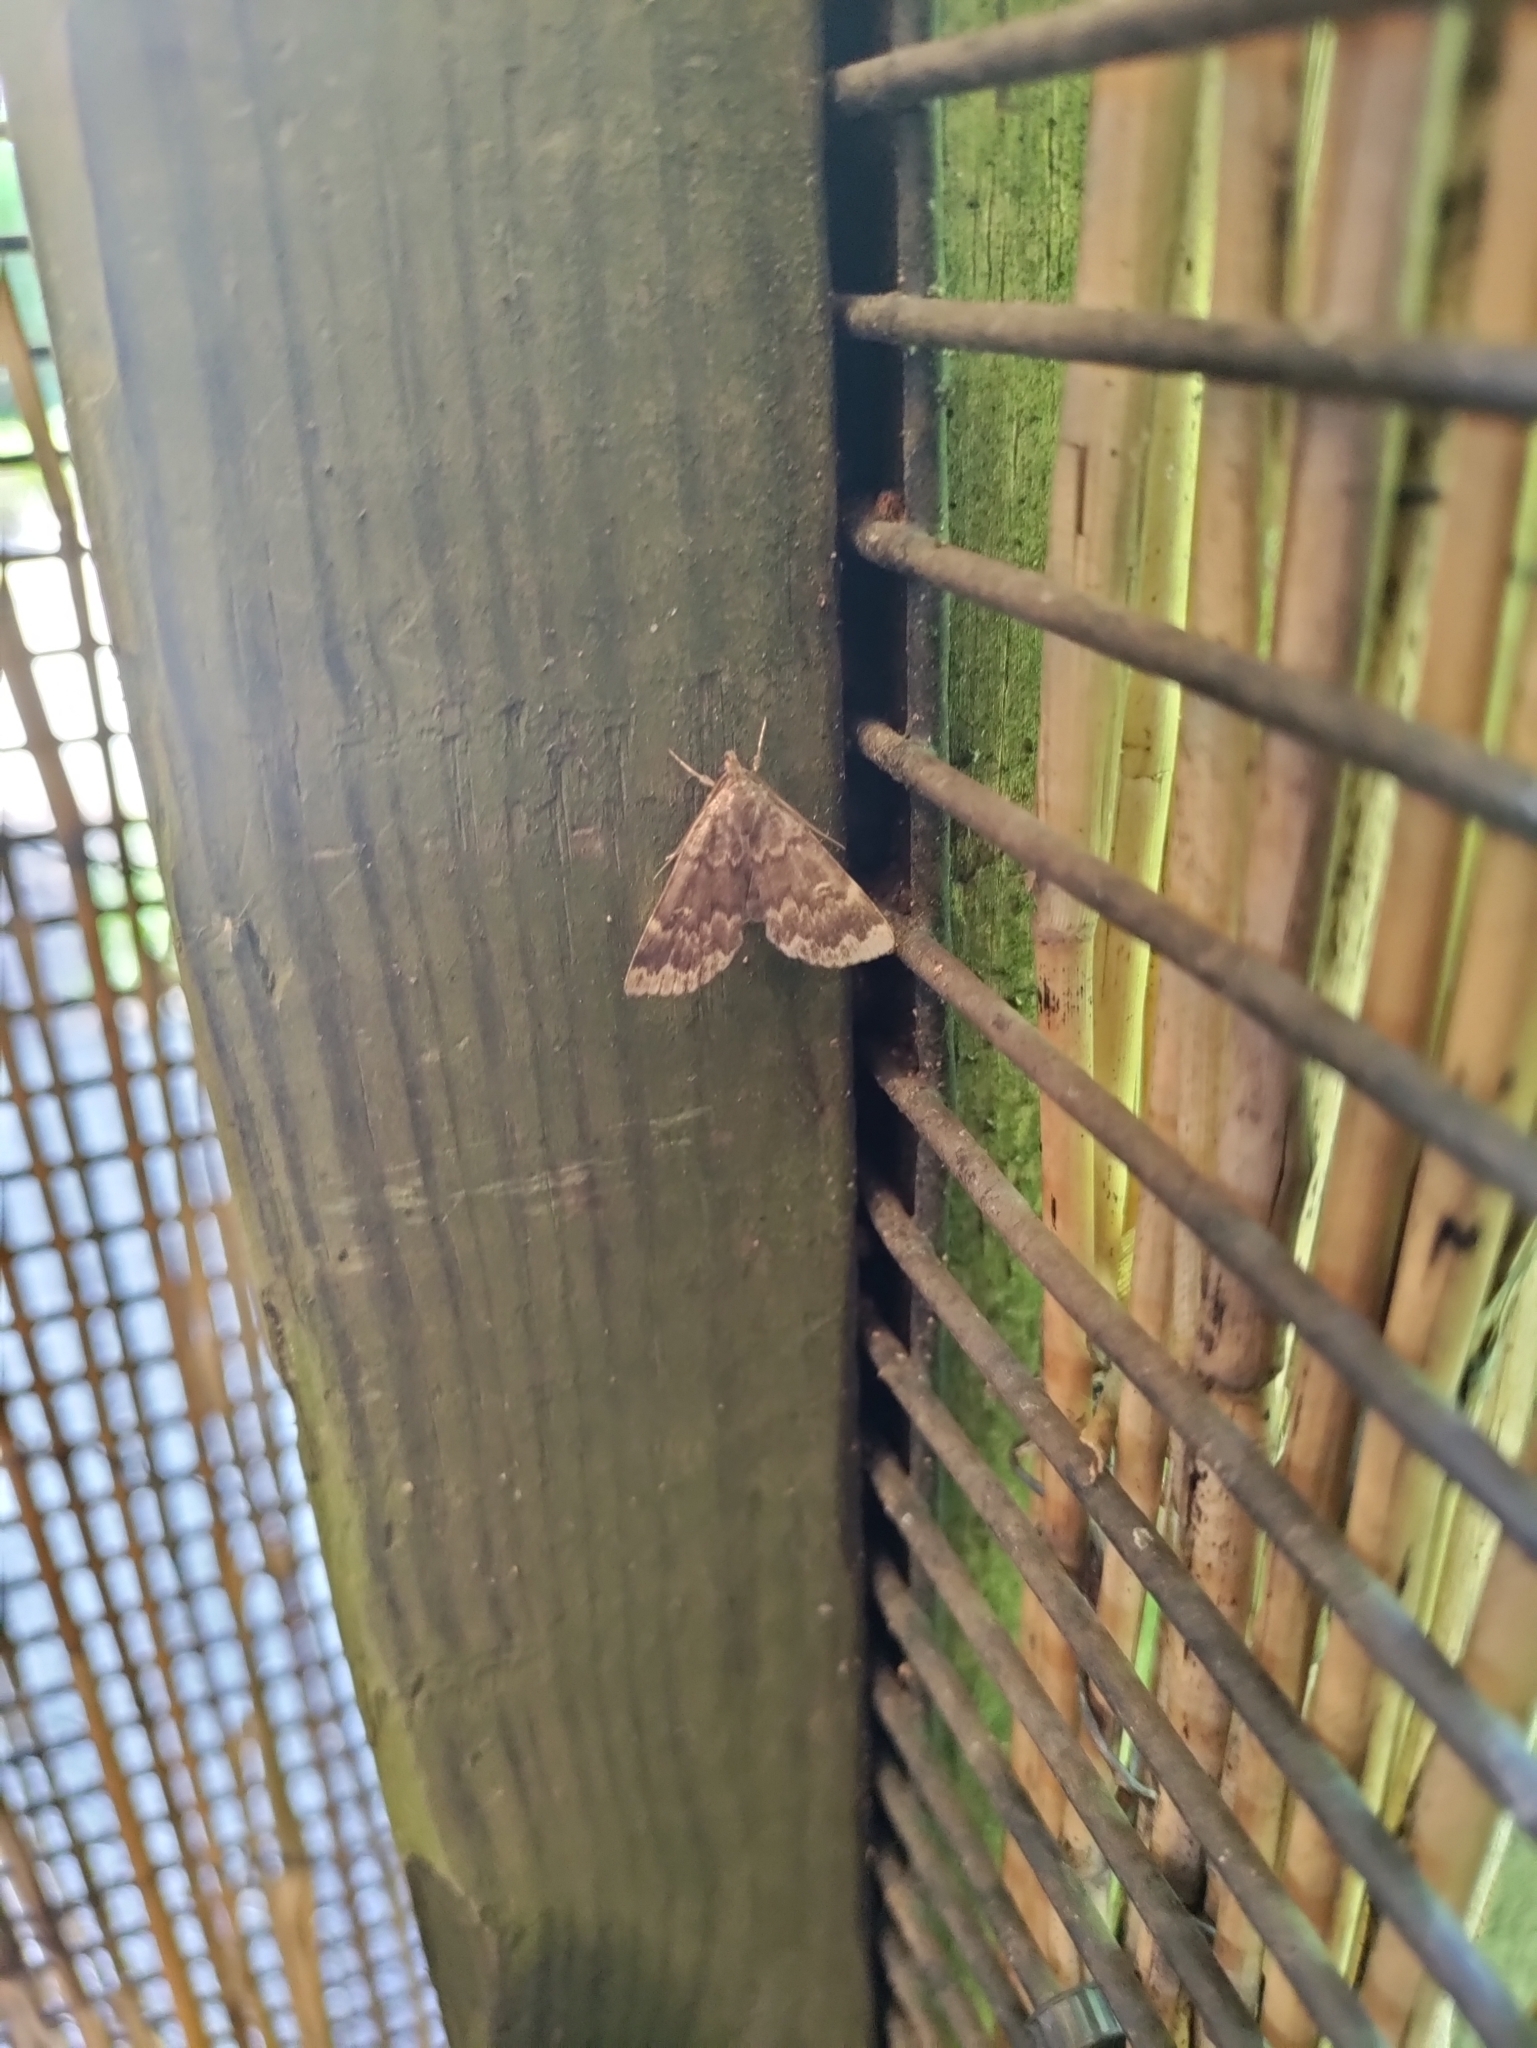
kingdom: Animalia
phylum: Arthropoda
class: Insecta
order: Lepidoptera
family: Erebidae
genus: Idia
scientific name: Idia lubricalis
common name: Twin-striped tabby
